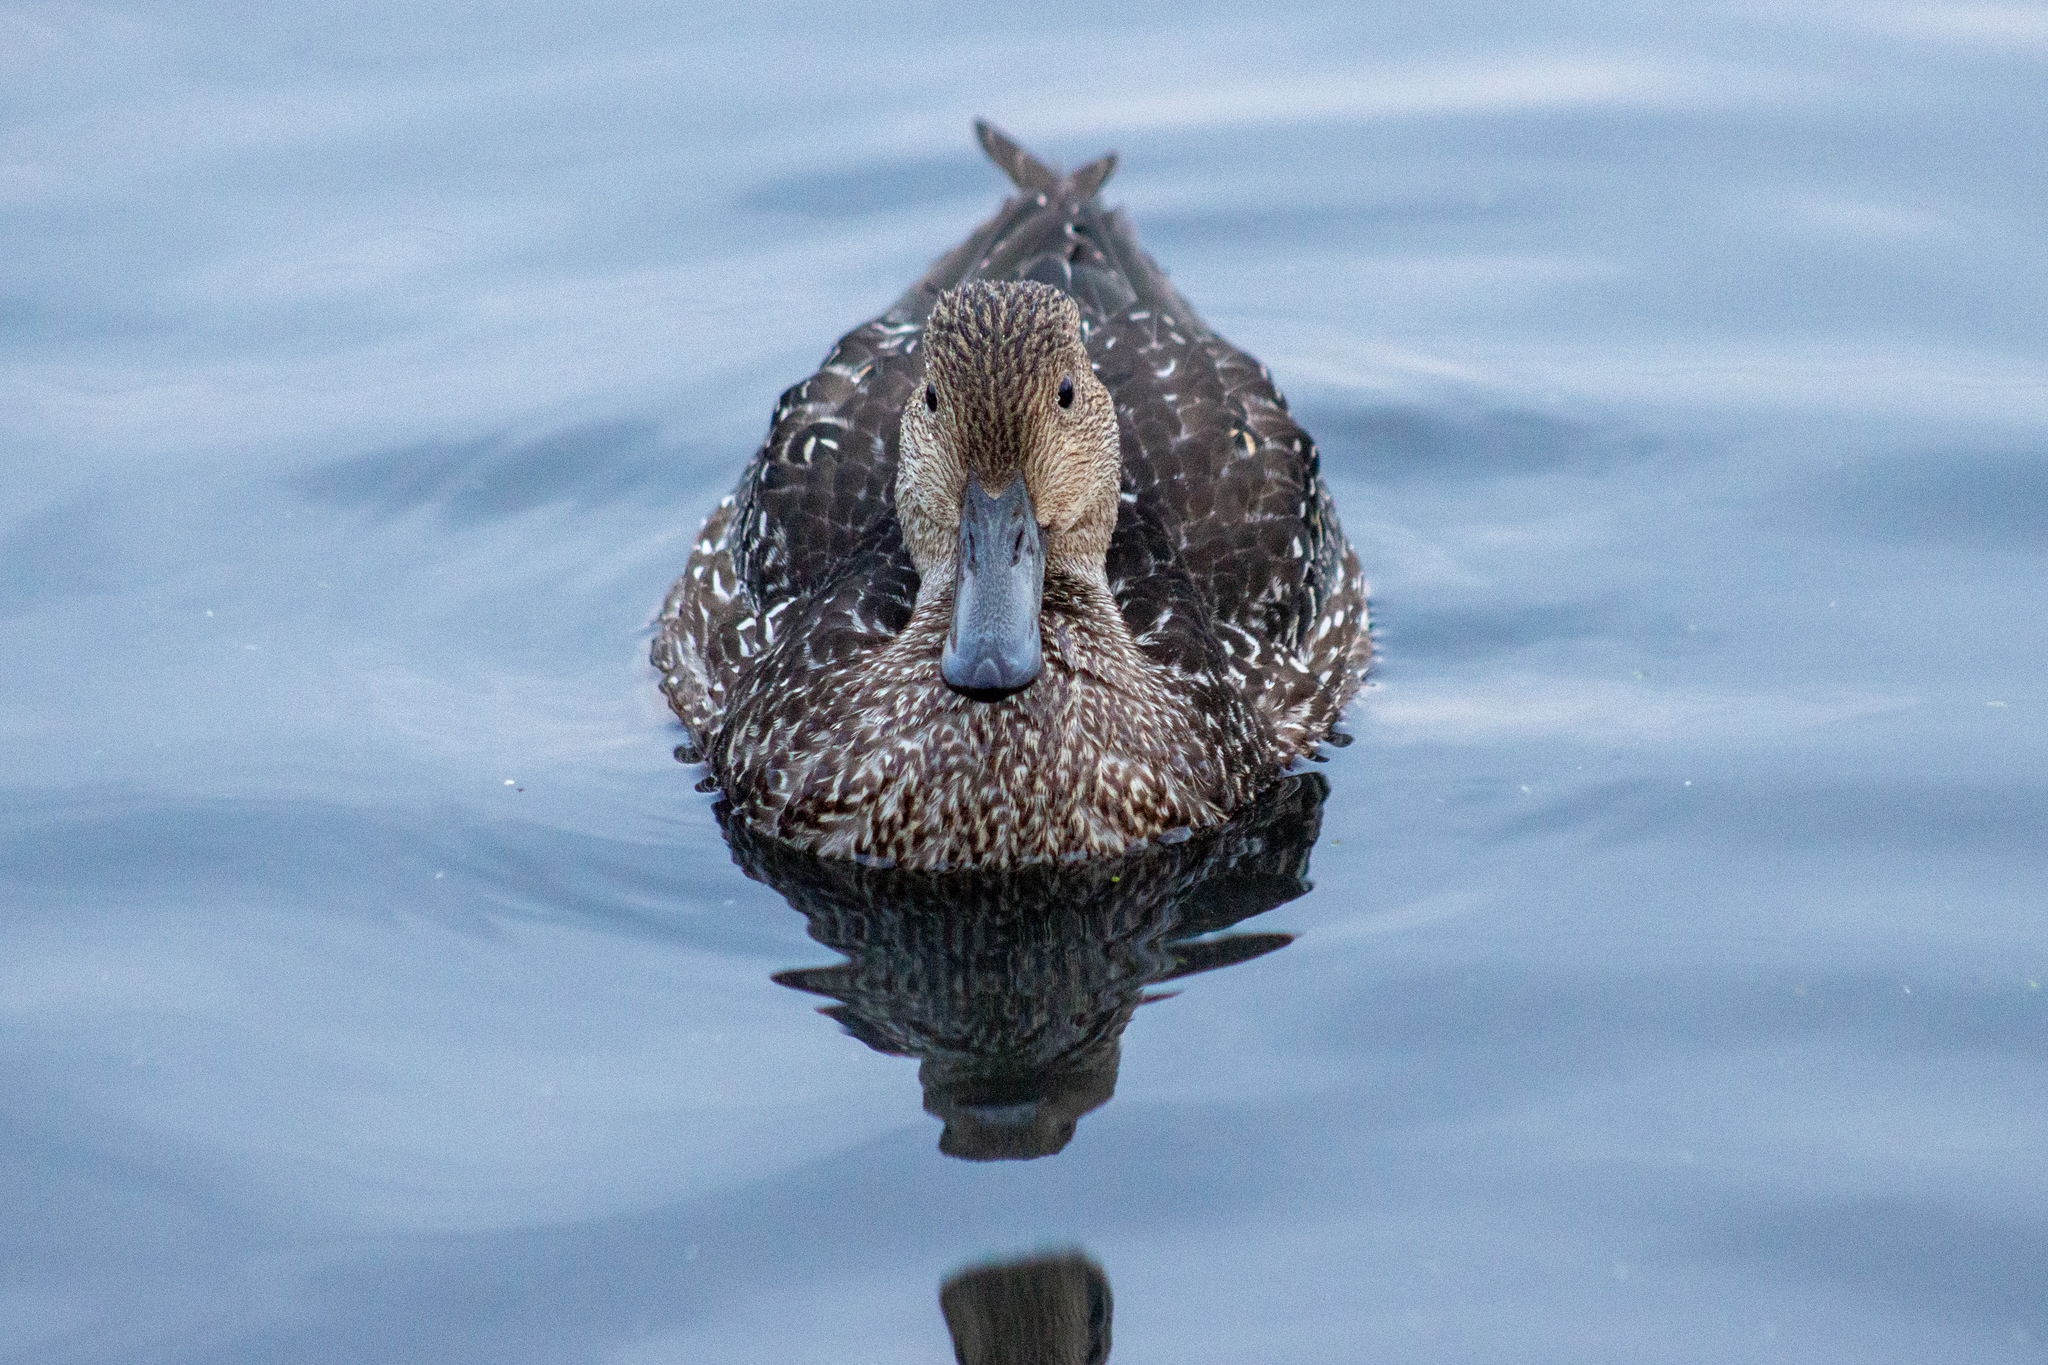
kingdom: Animalia
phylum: Chordata
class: Aves
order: Anseriformes
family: Anatidae
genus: Anas
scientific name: Anas acuta
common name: Northern pintail
